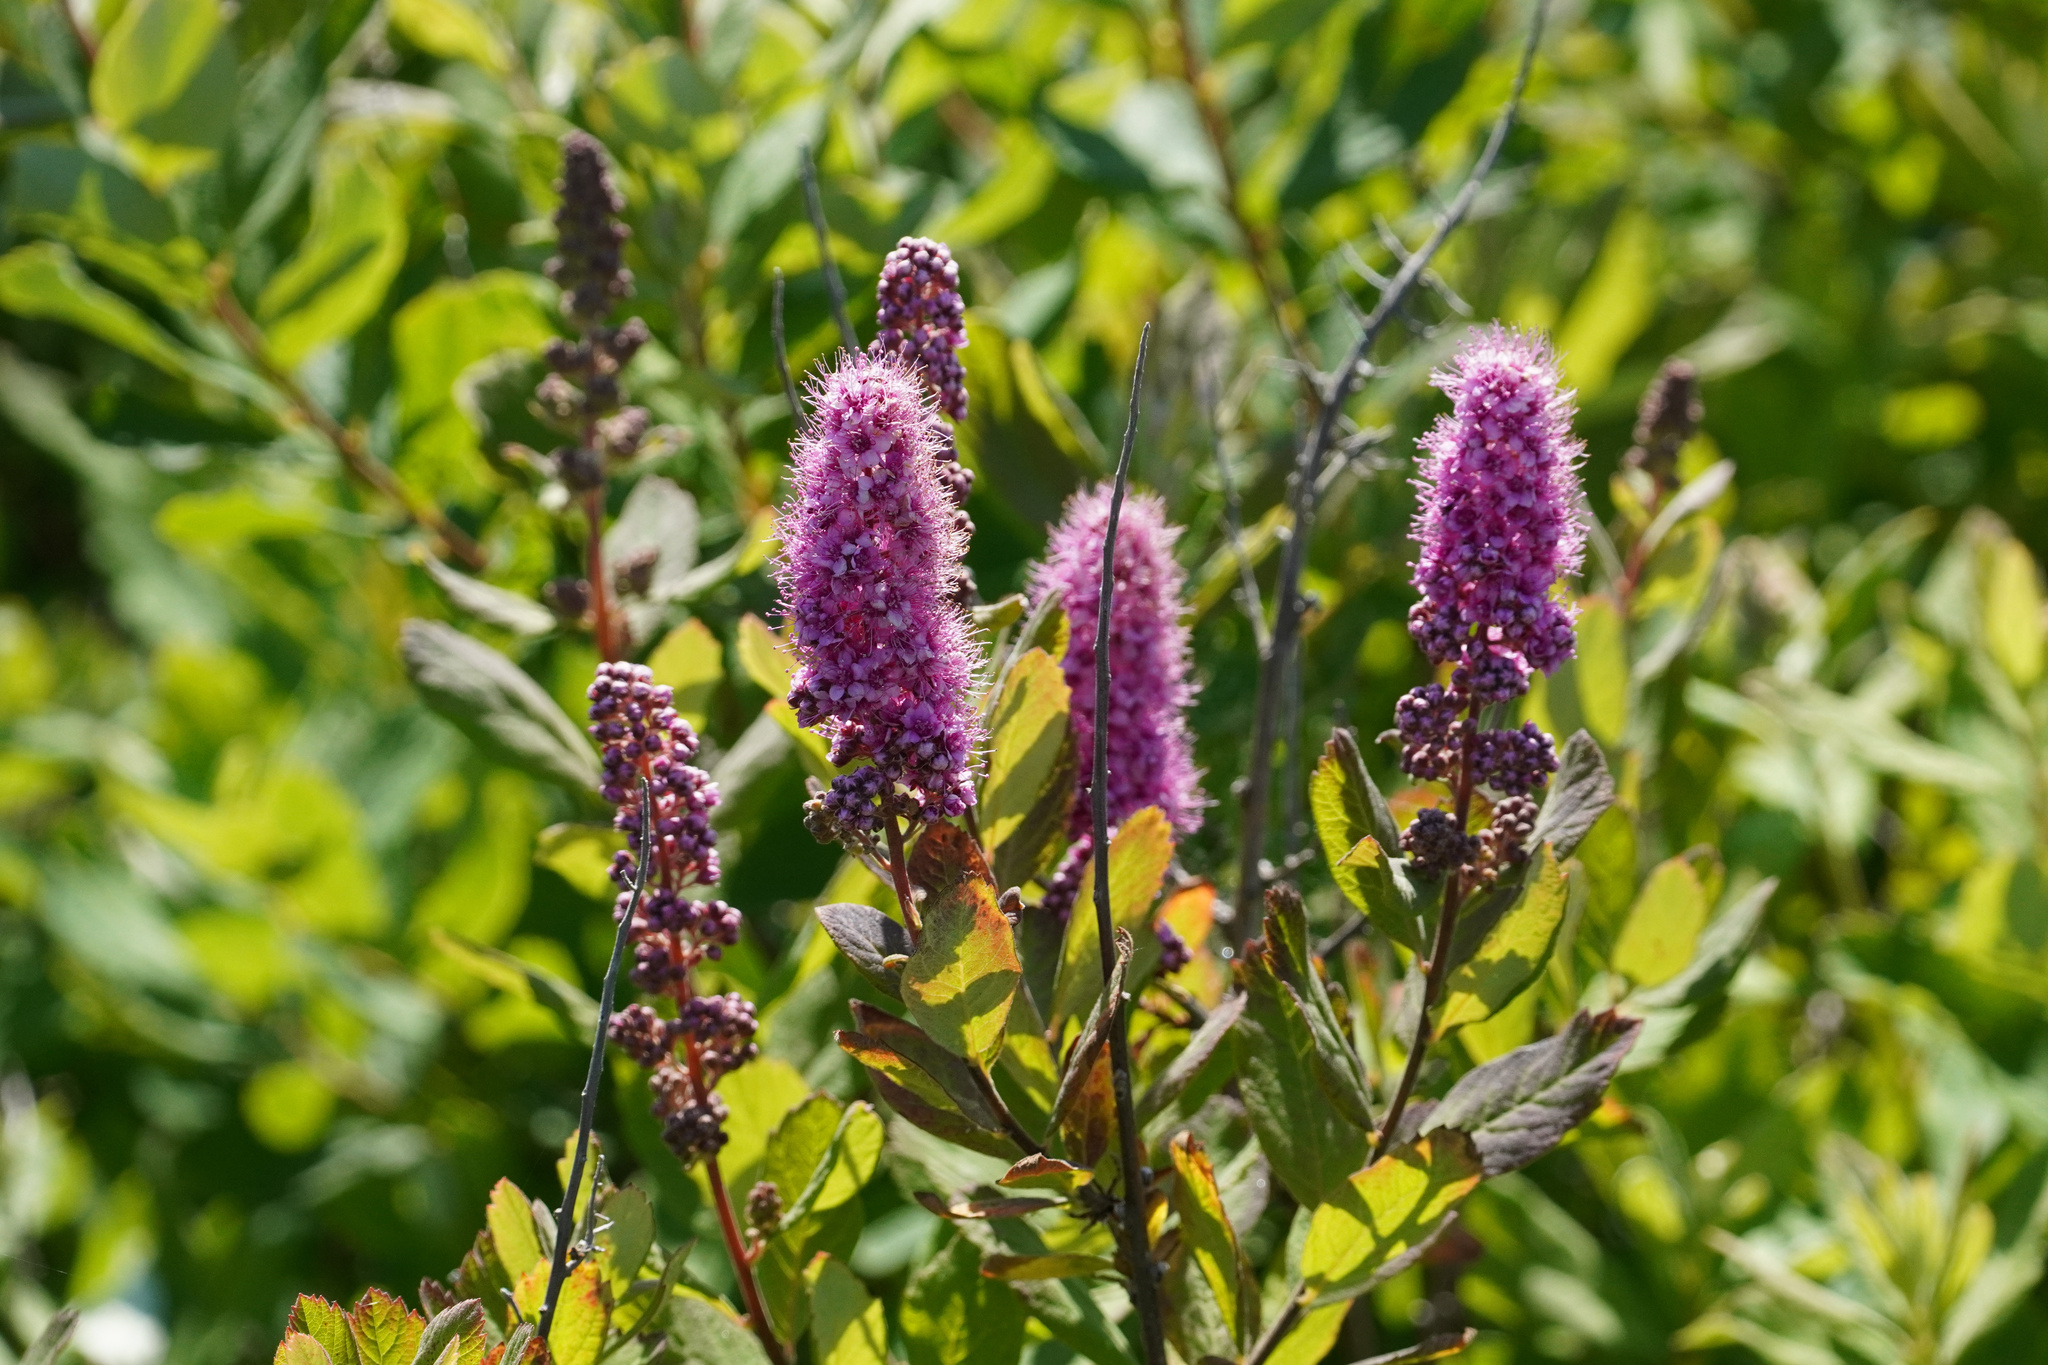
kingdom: Plantae
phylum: Tracheophyta
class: Magnoliopsida
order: Rosales
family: Rosaceae
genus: Spiraea
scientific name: Spiraea douglasii
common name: Steeplebush
